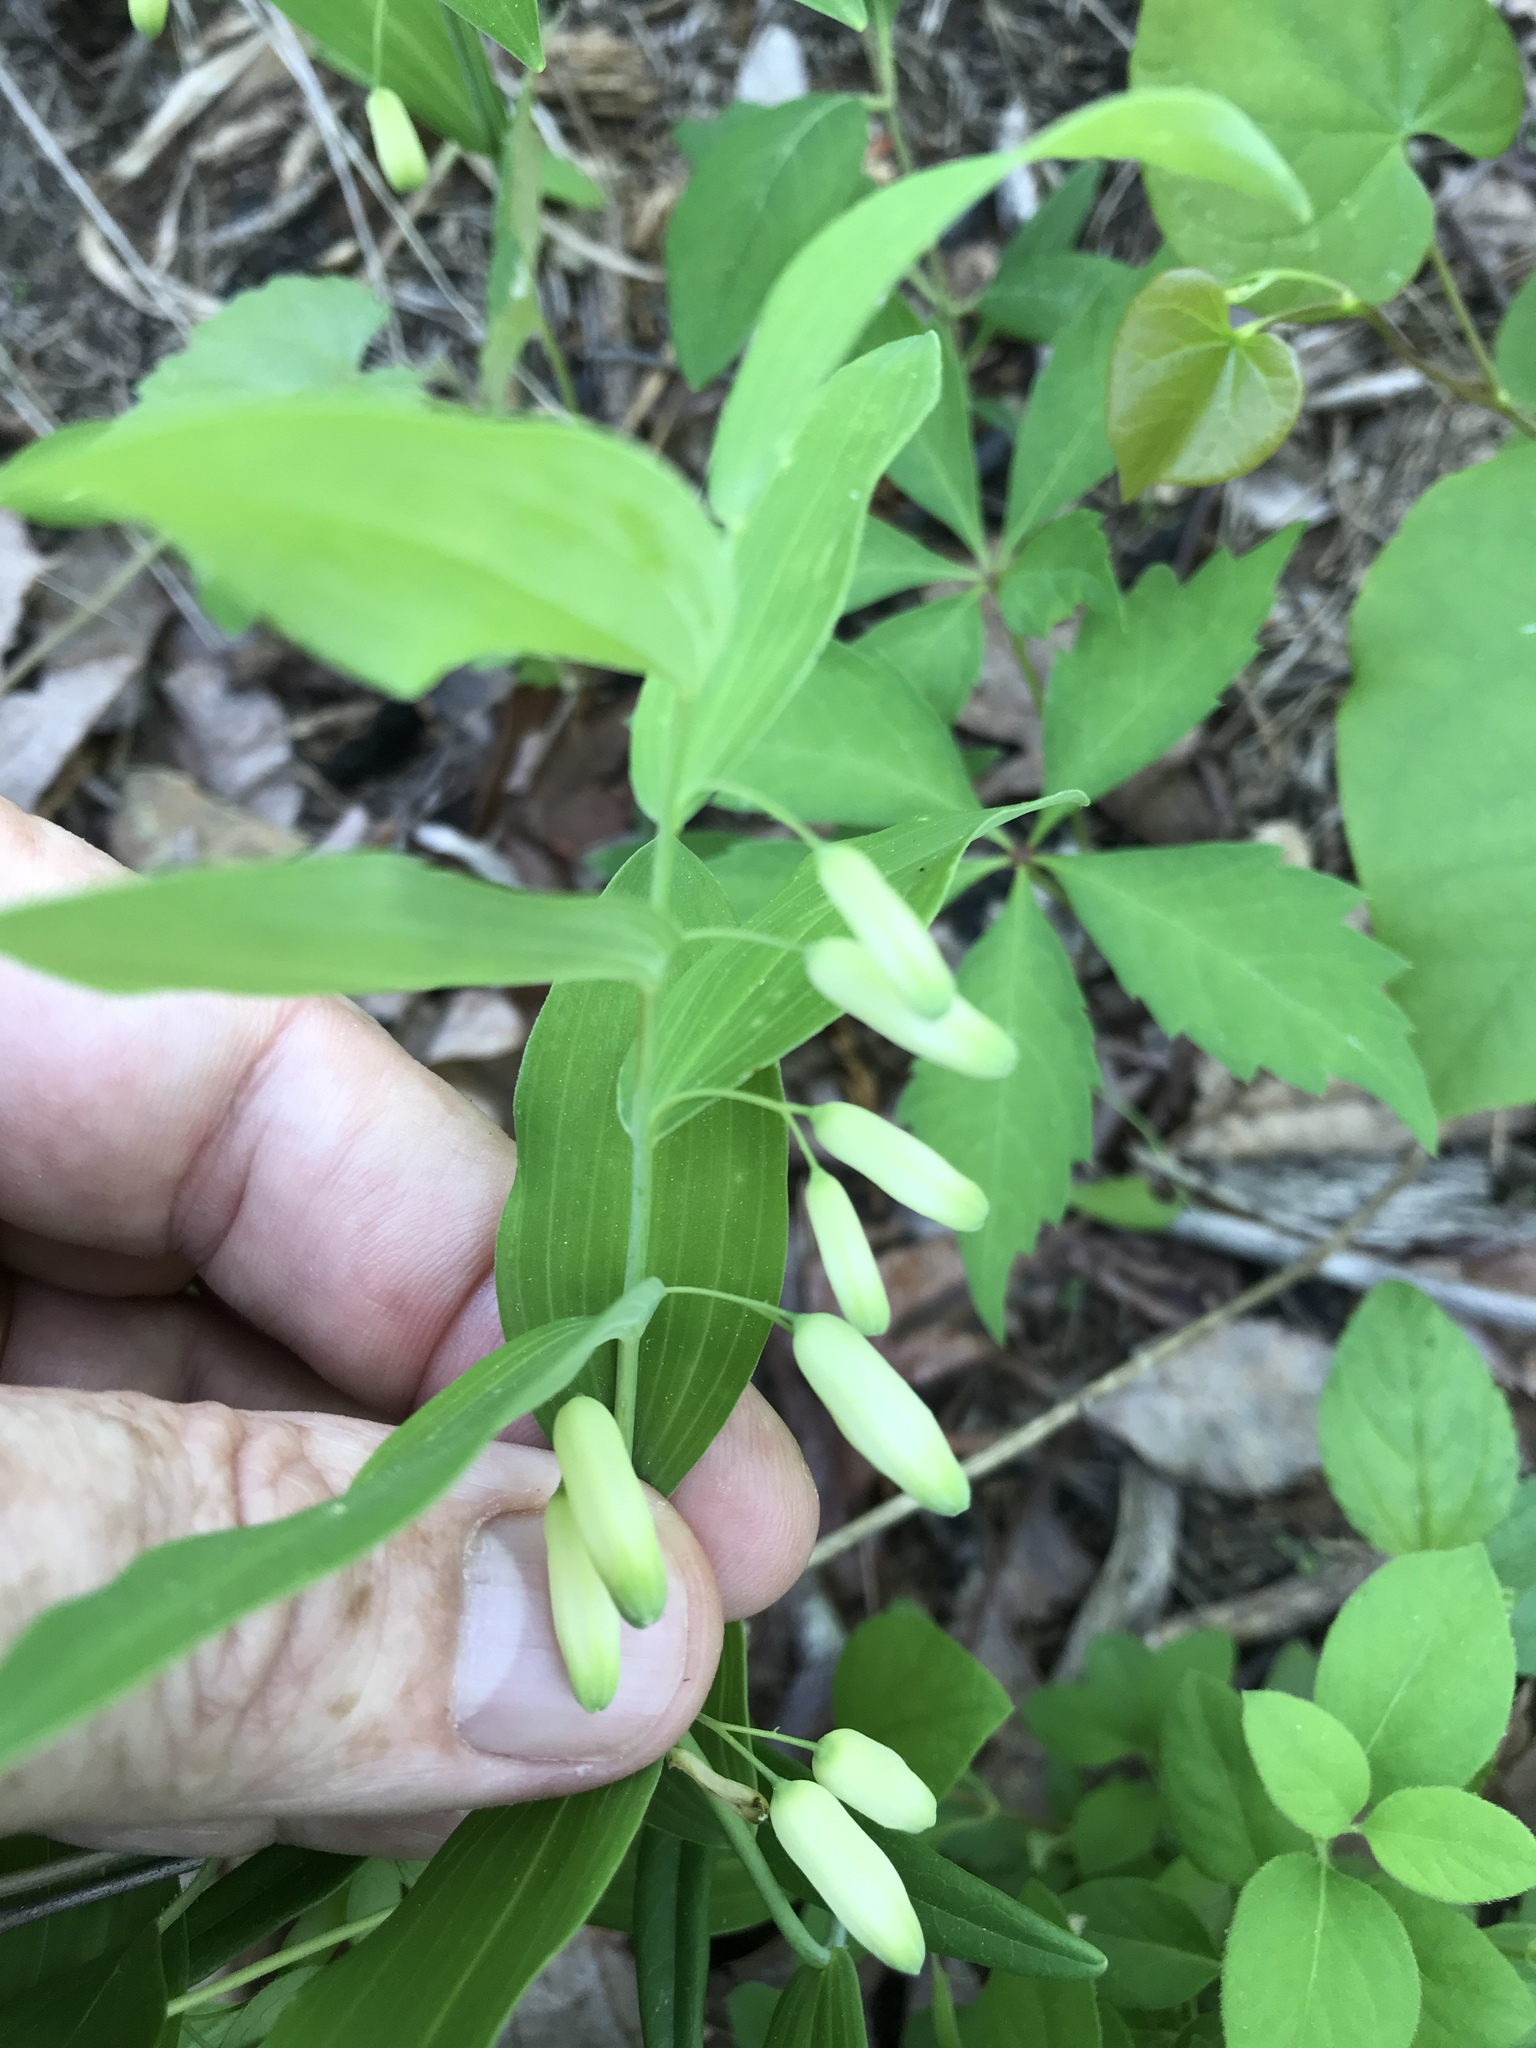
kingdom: Plantae
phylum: Tracheophyta
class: Liliopsida
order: Asparagales
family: Asparagaceae
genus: Polygonatum
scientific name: Polygonatum biflorum
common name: American solomon's-seal
